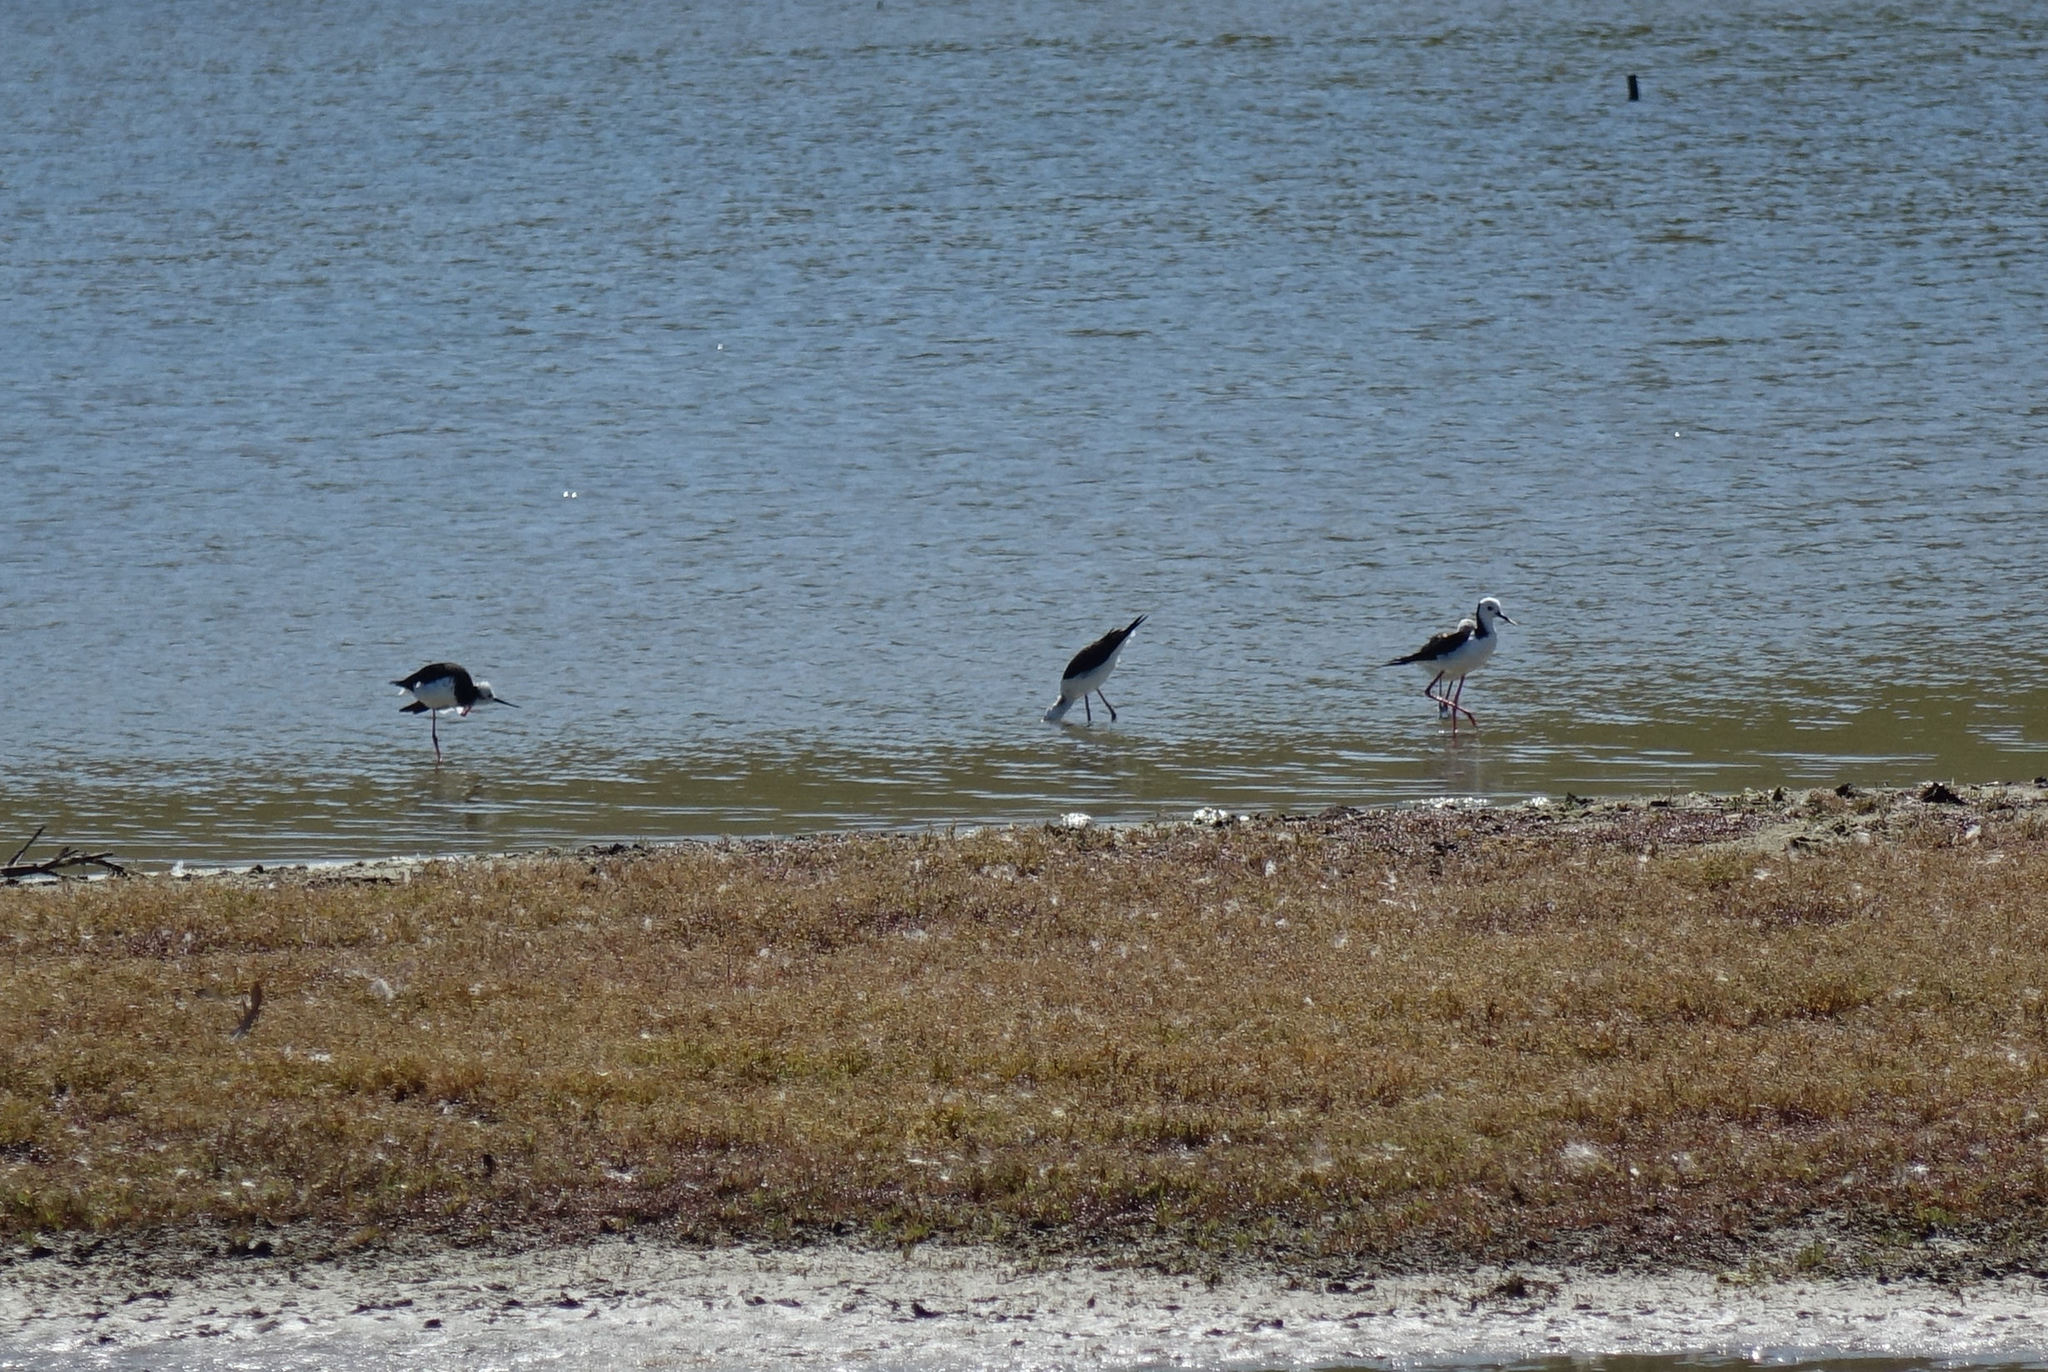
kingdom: Animalia
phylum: Chordata
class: Aves
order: Charadriiformes
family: Recurvirostridae
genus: Himantopus
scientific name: Himantopus leucocephalus
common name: White-headed stilt
